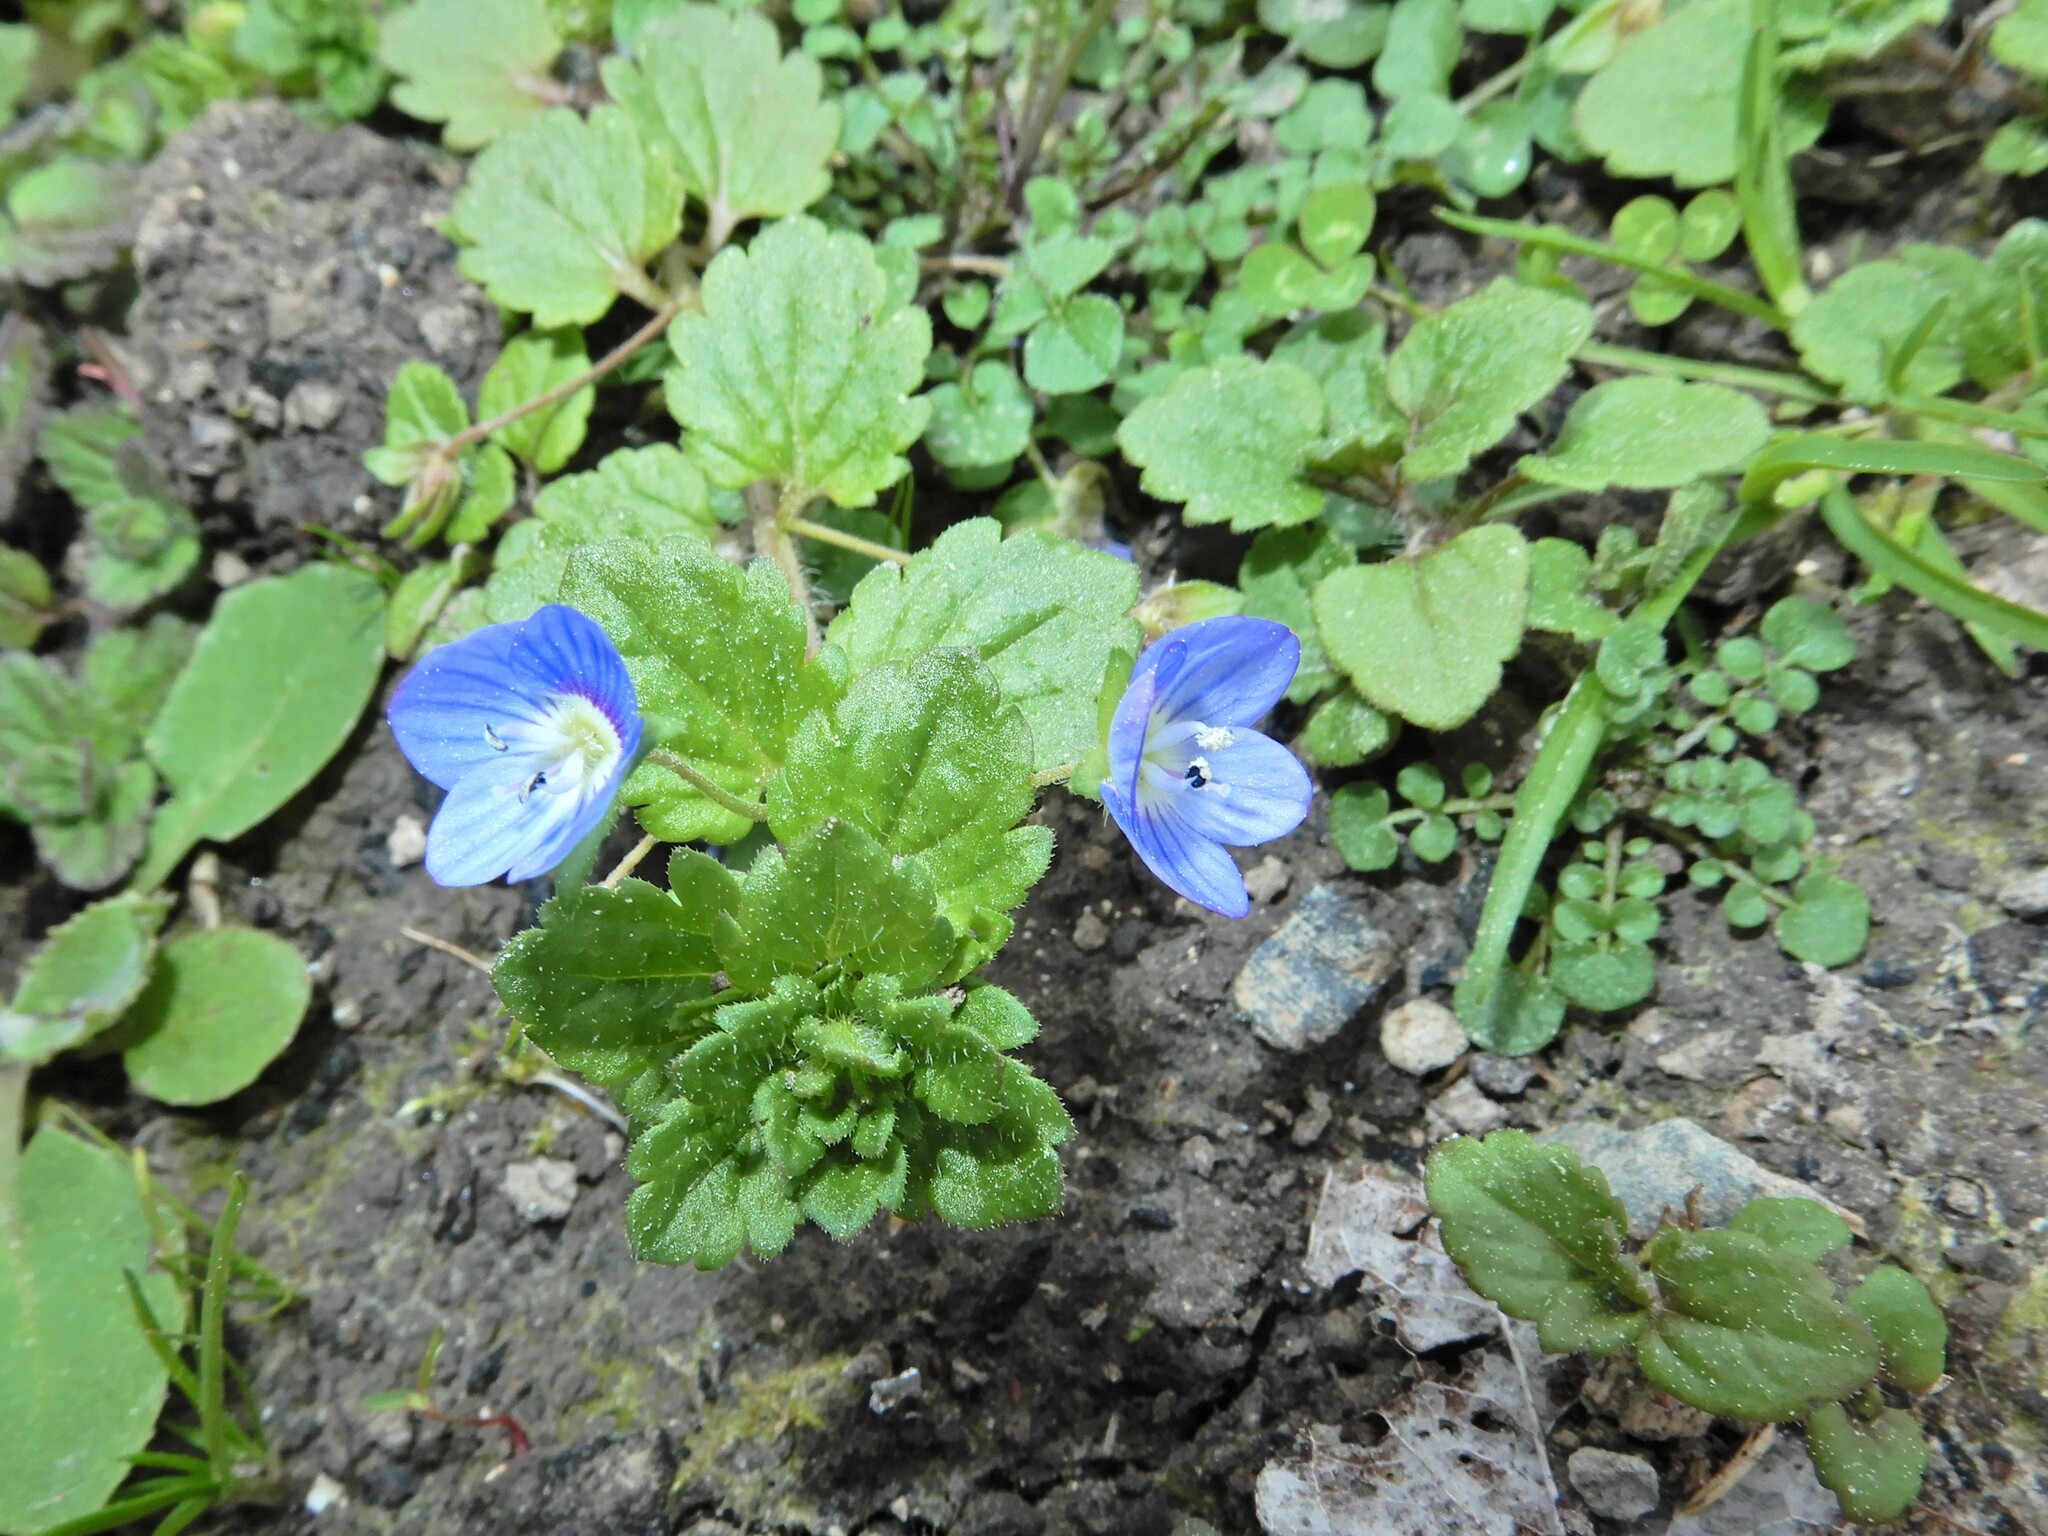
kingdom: Plantae
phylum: Tracheophyta
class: Magnoliopsida
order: Lamiales
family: Plantaginaceae
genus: Veronica
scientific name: Veronica persica
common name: Common field-speedwell
